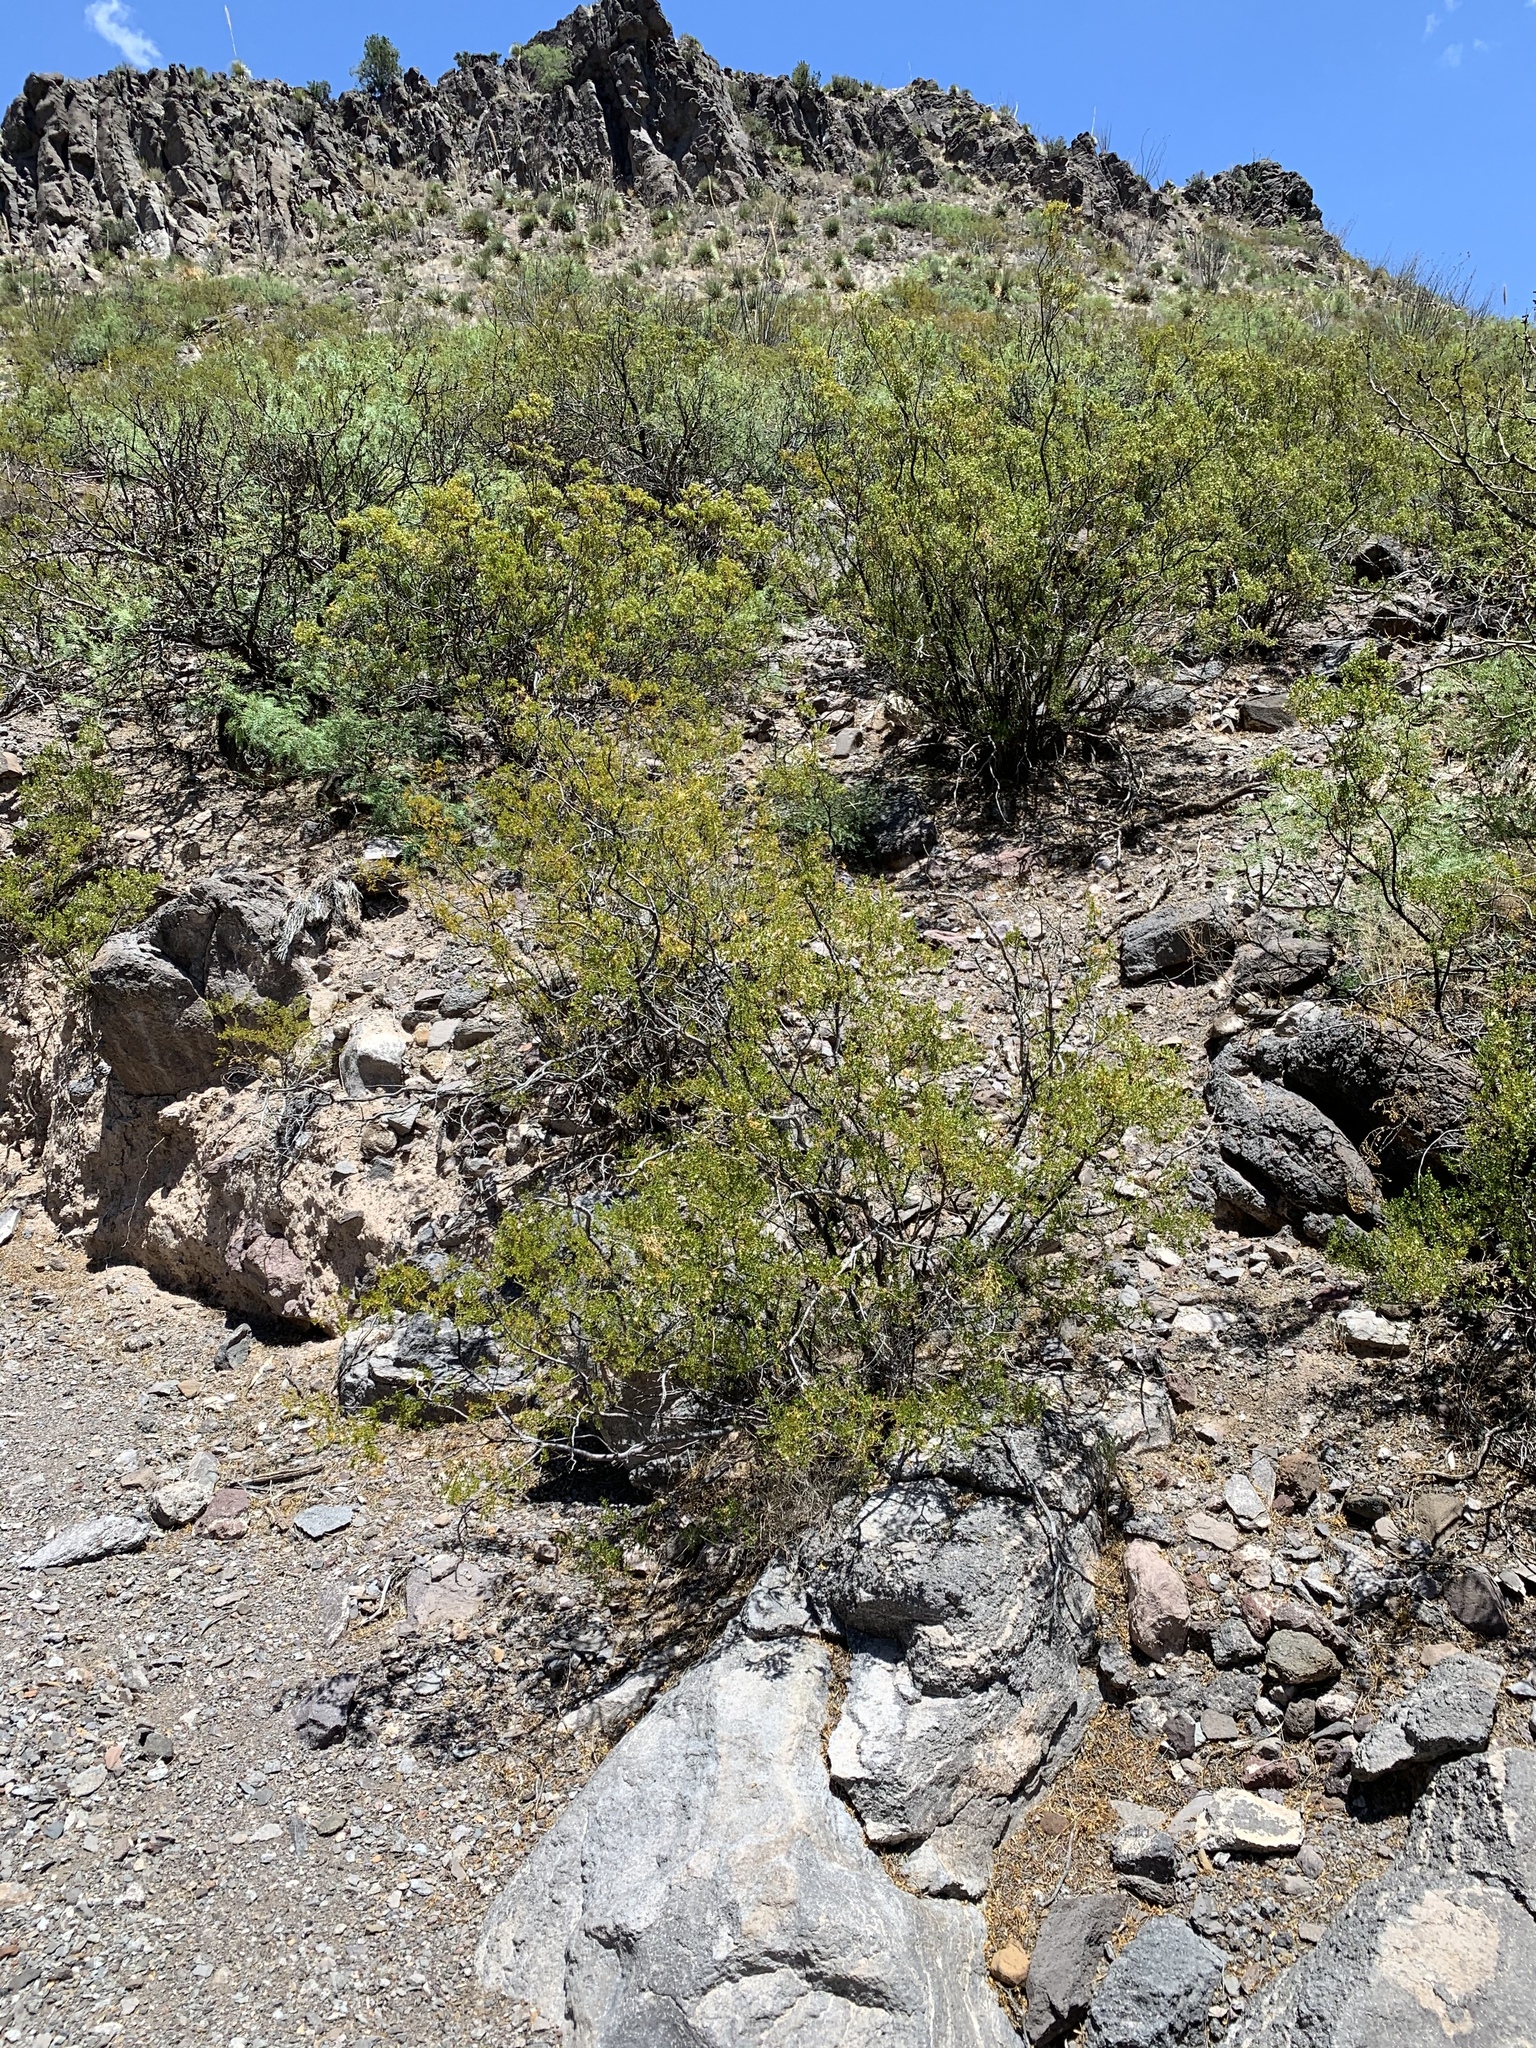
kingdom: Plantae
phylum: Tracheophyta
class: Magnoliopsida
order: Zygophyllales
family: Zygophyllaceae
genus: Larrea
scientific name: Larrea tridentata
